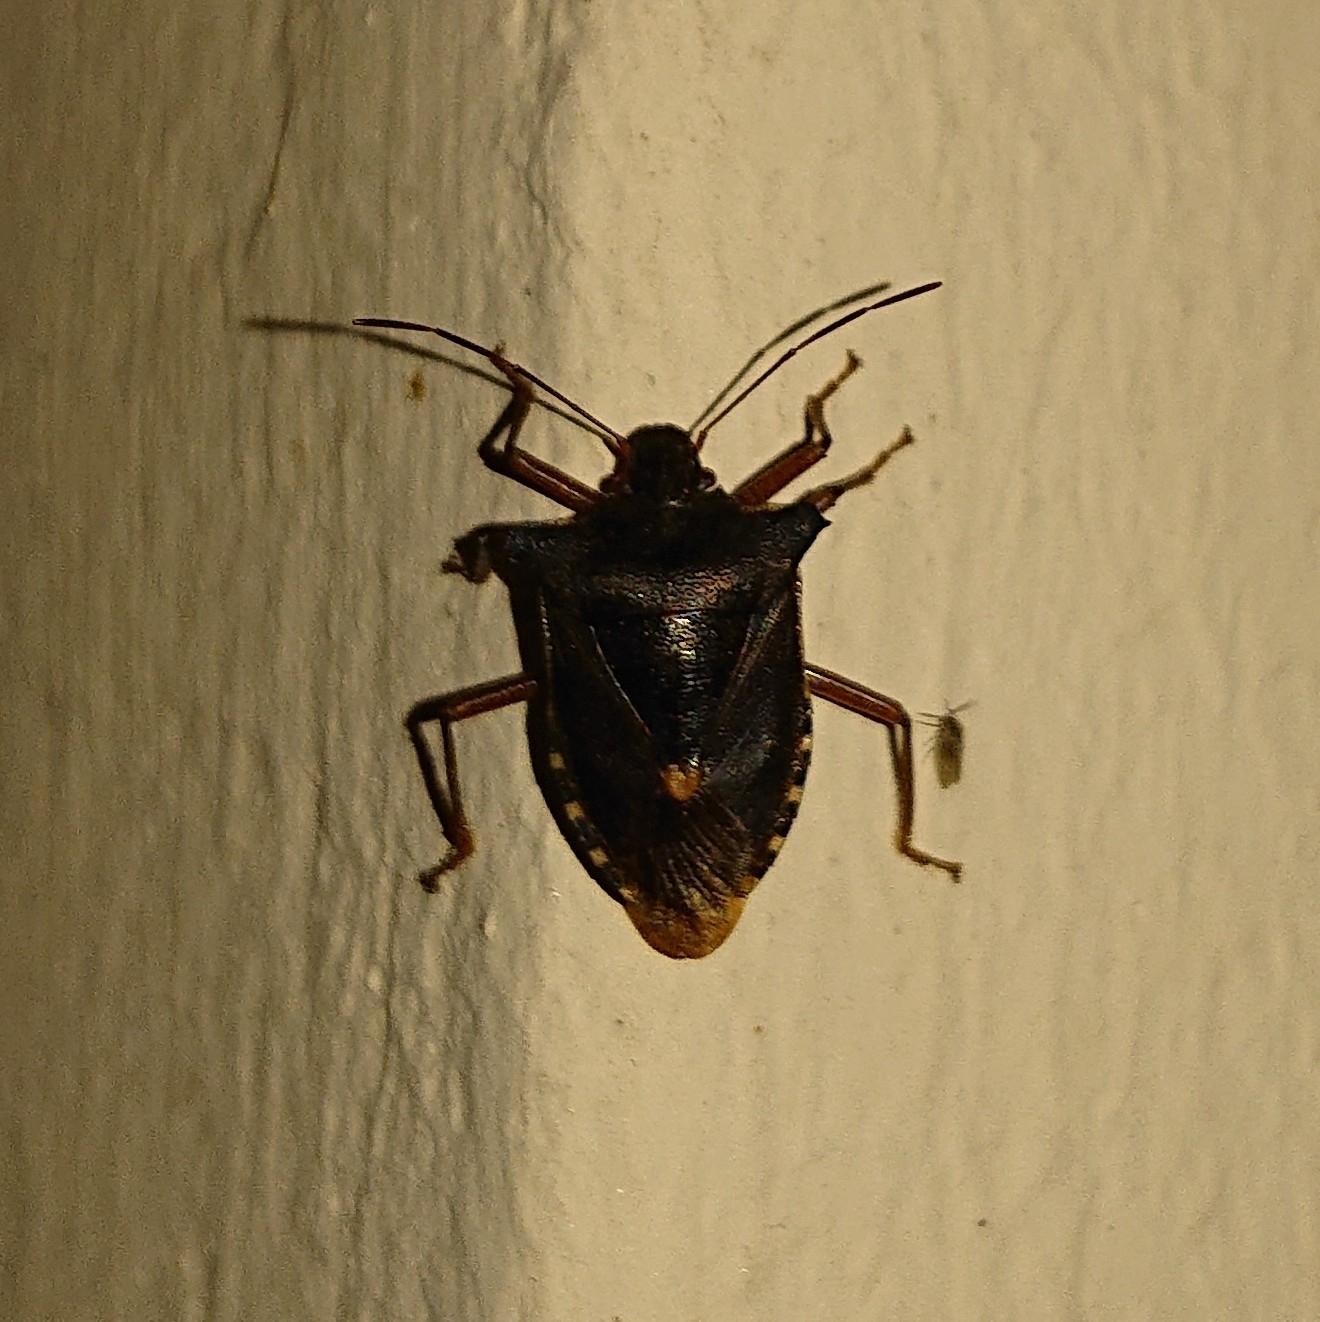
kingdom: Animalia
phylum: Arthropoda
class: Insecta
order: Hemiptera
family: Pentatomidae
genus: Pentatoma
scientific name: Pentatoma rufipes
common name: Forest bug
